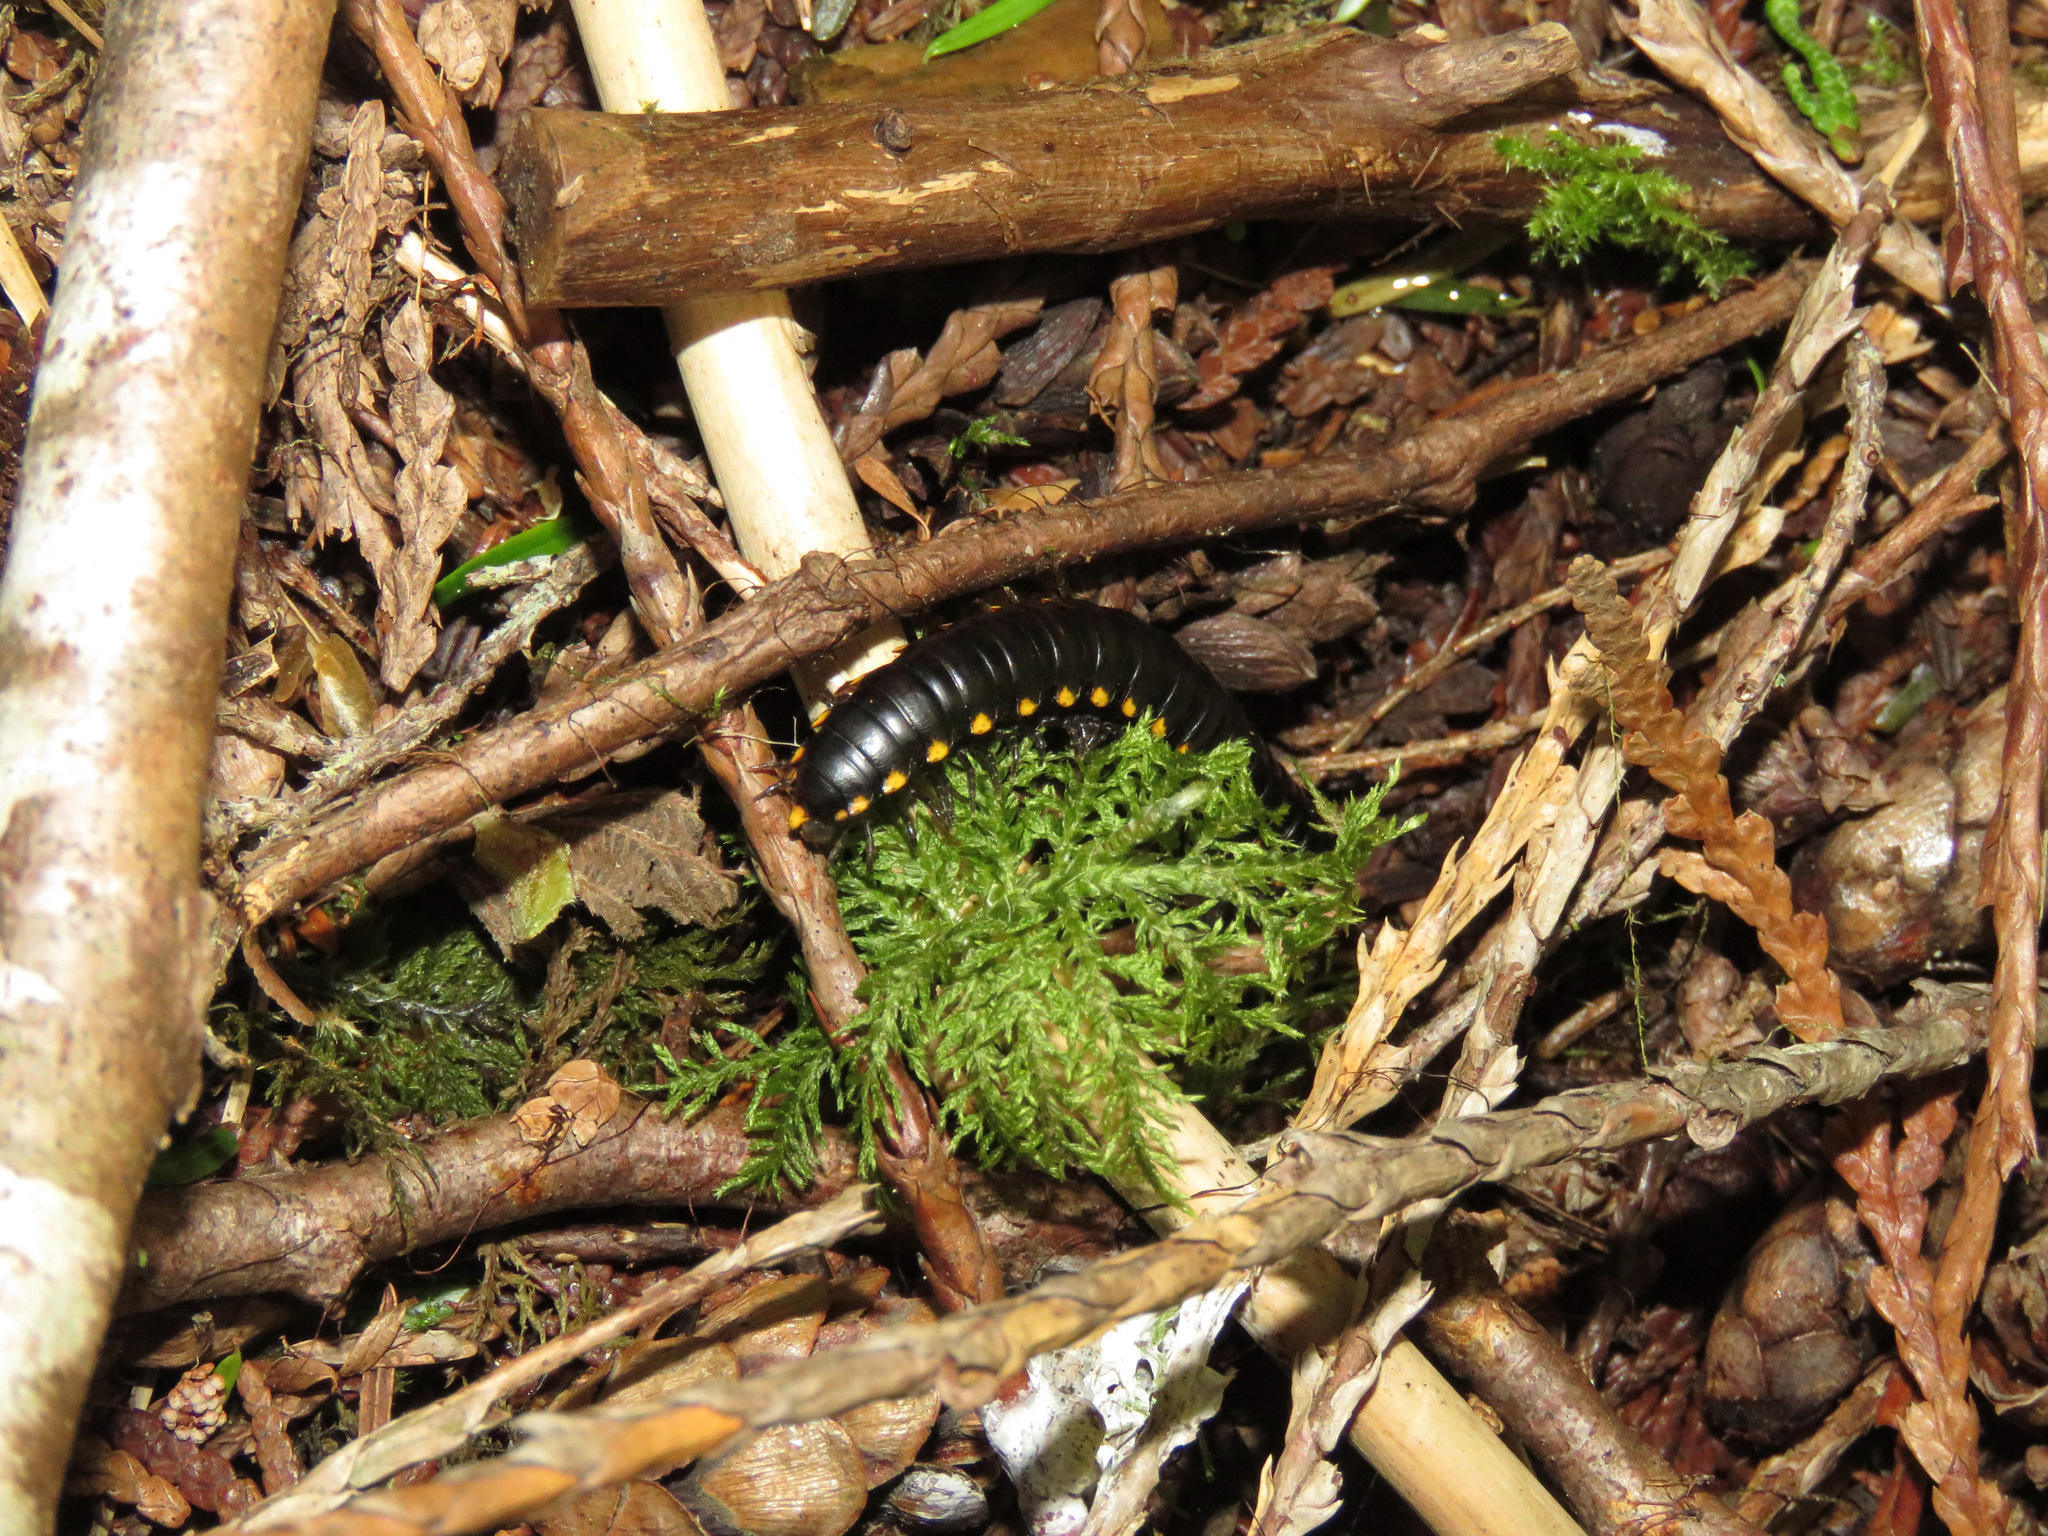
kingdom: Animalia
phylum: Arthropoda
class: Diplopoda
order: Polydesmida
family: Xystodesmidae
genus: Harpaphe
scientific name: Harpaphe haydeniana
